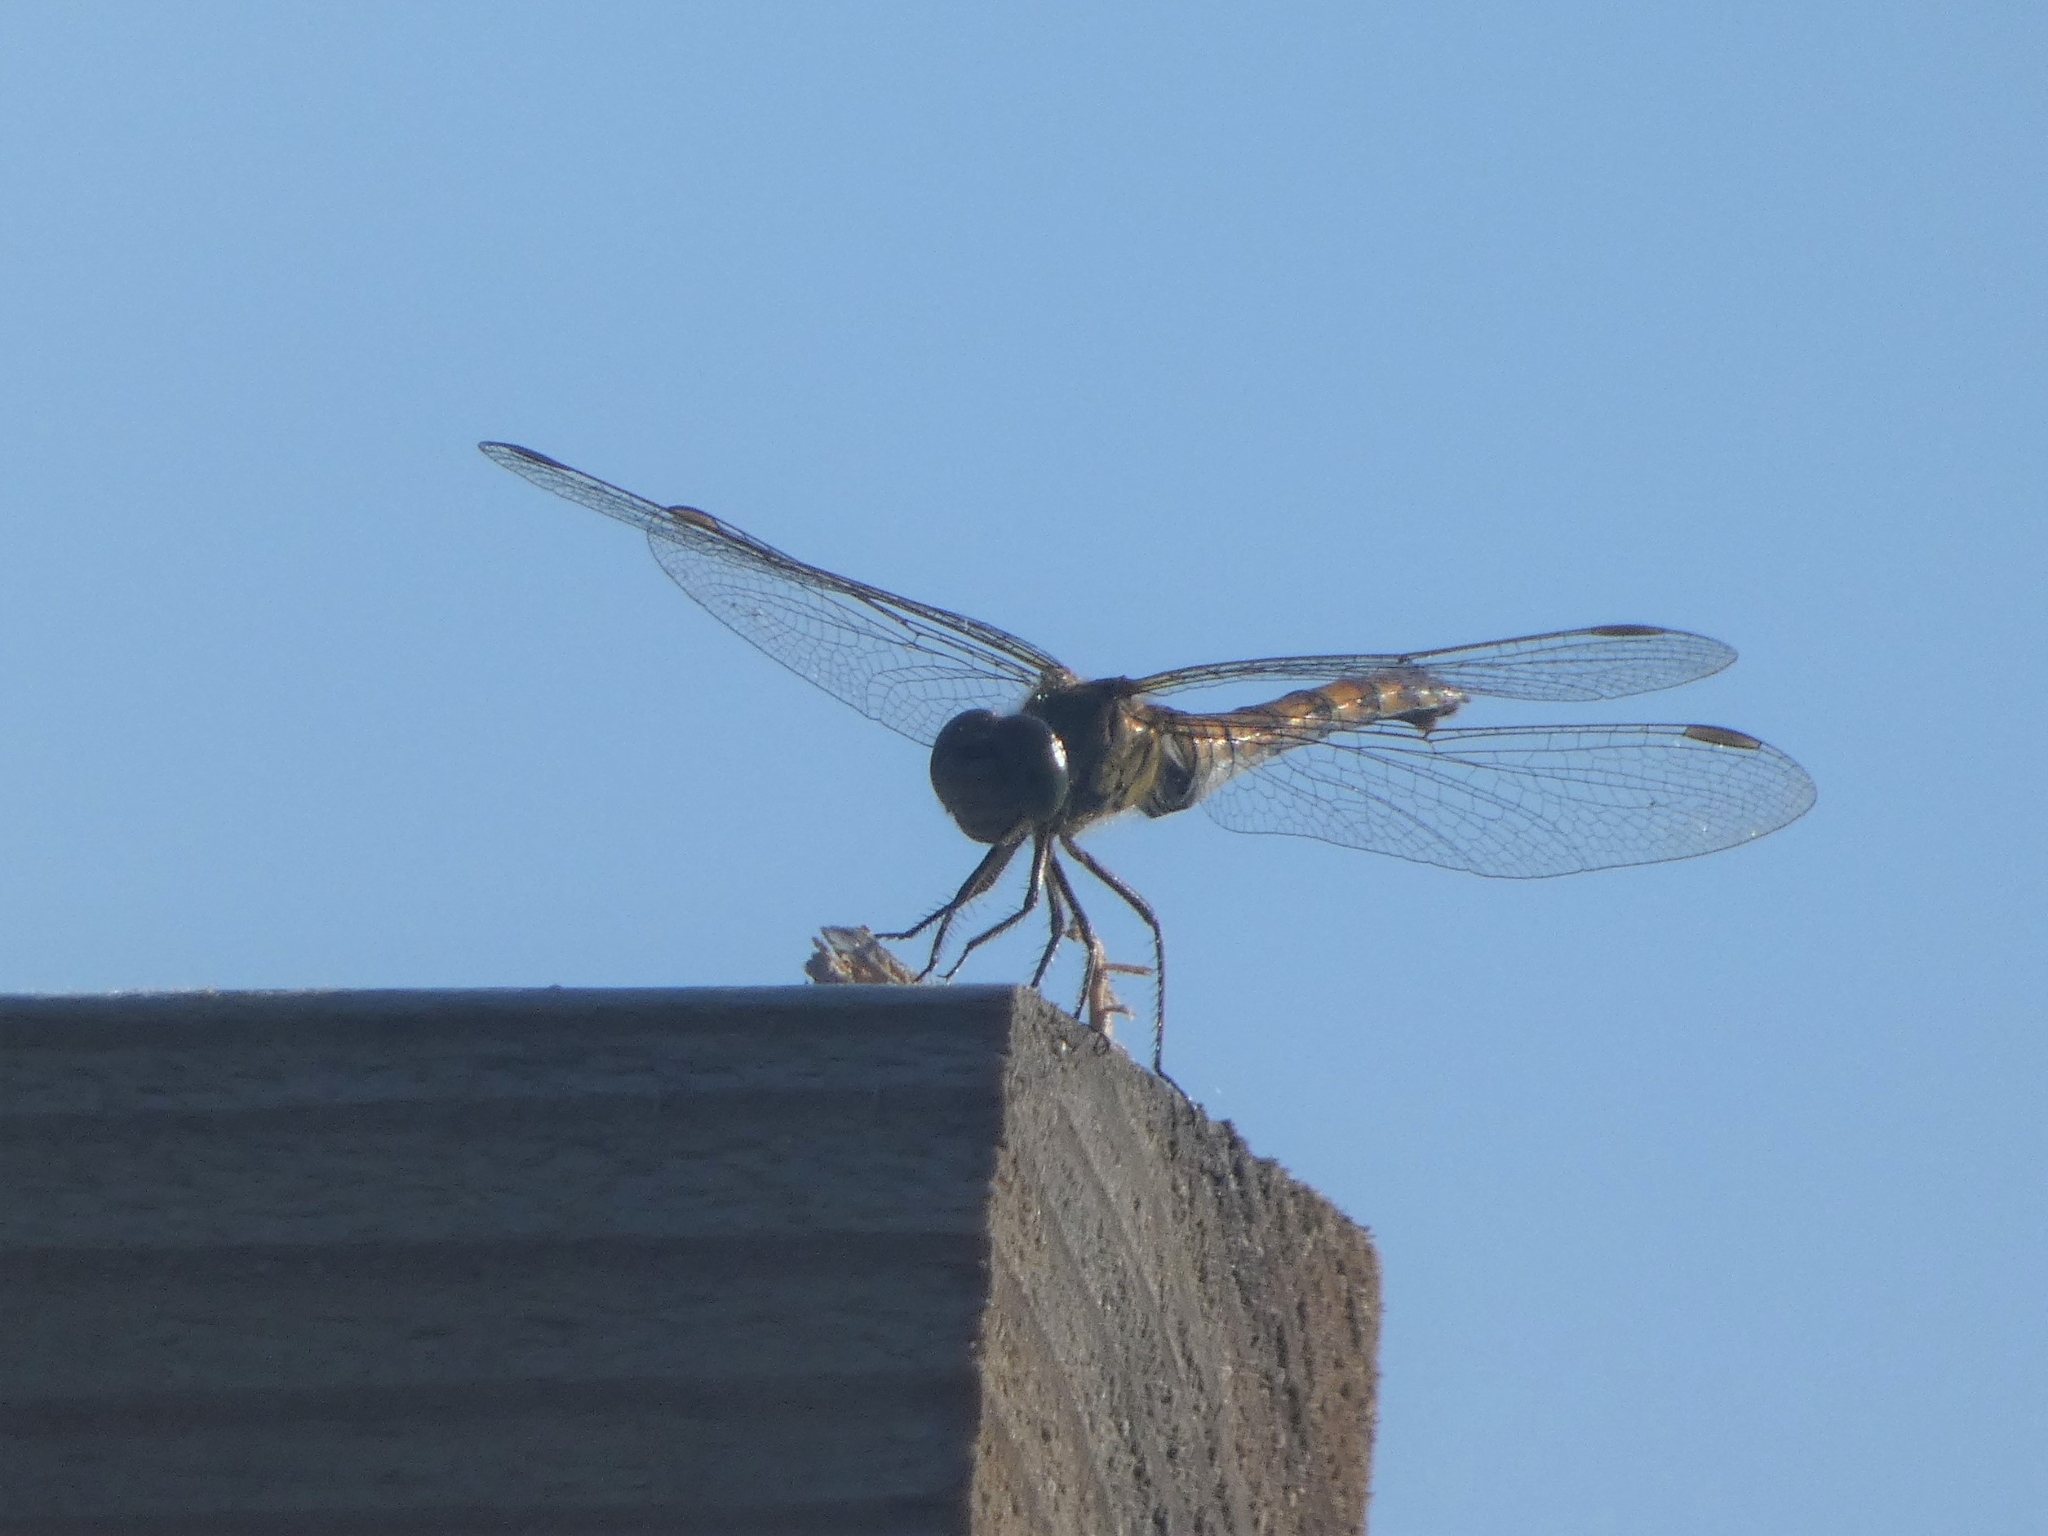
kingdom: Animalia
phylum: Arthropoda
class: Insecta
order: Odonata
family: Libellulidae
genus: Sympetrum
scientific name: Sympetrum striolatum
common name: Common darter
